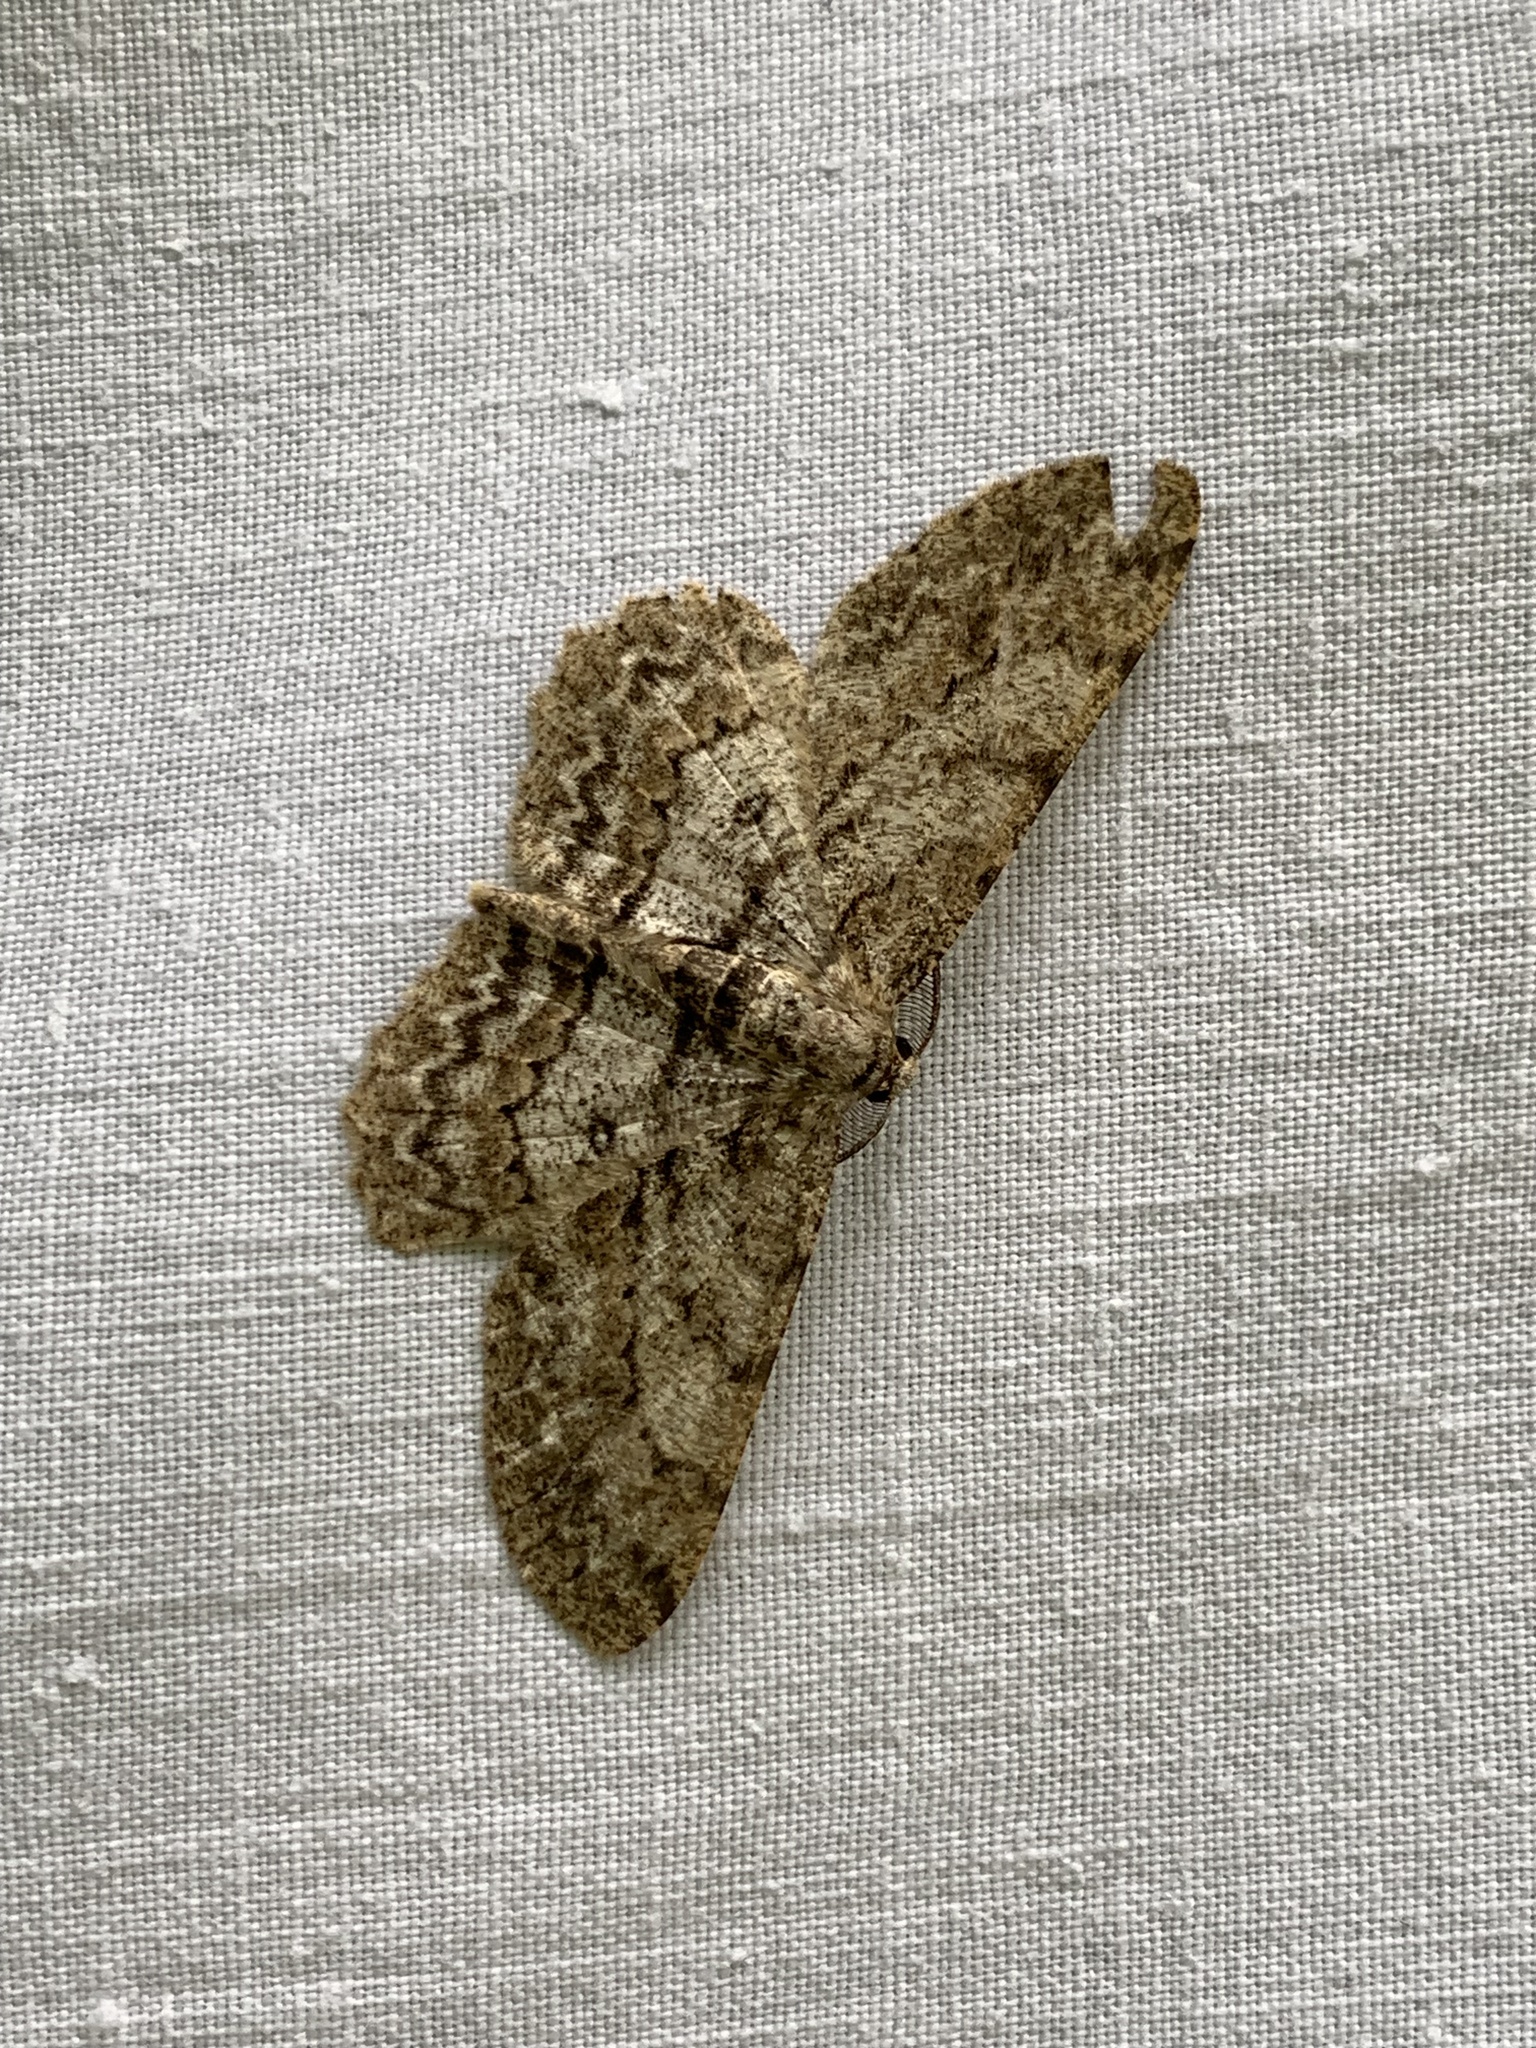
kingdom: Animalia
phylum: Arthropoda
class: Insecta
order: Lepidoptera
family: Geometridae
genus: Hypomecis
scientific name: Hypomecis punctinalis
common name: Pale oak beauty
